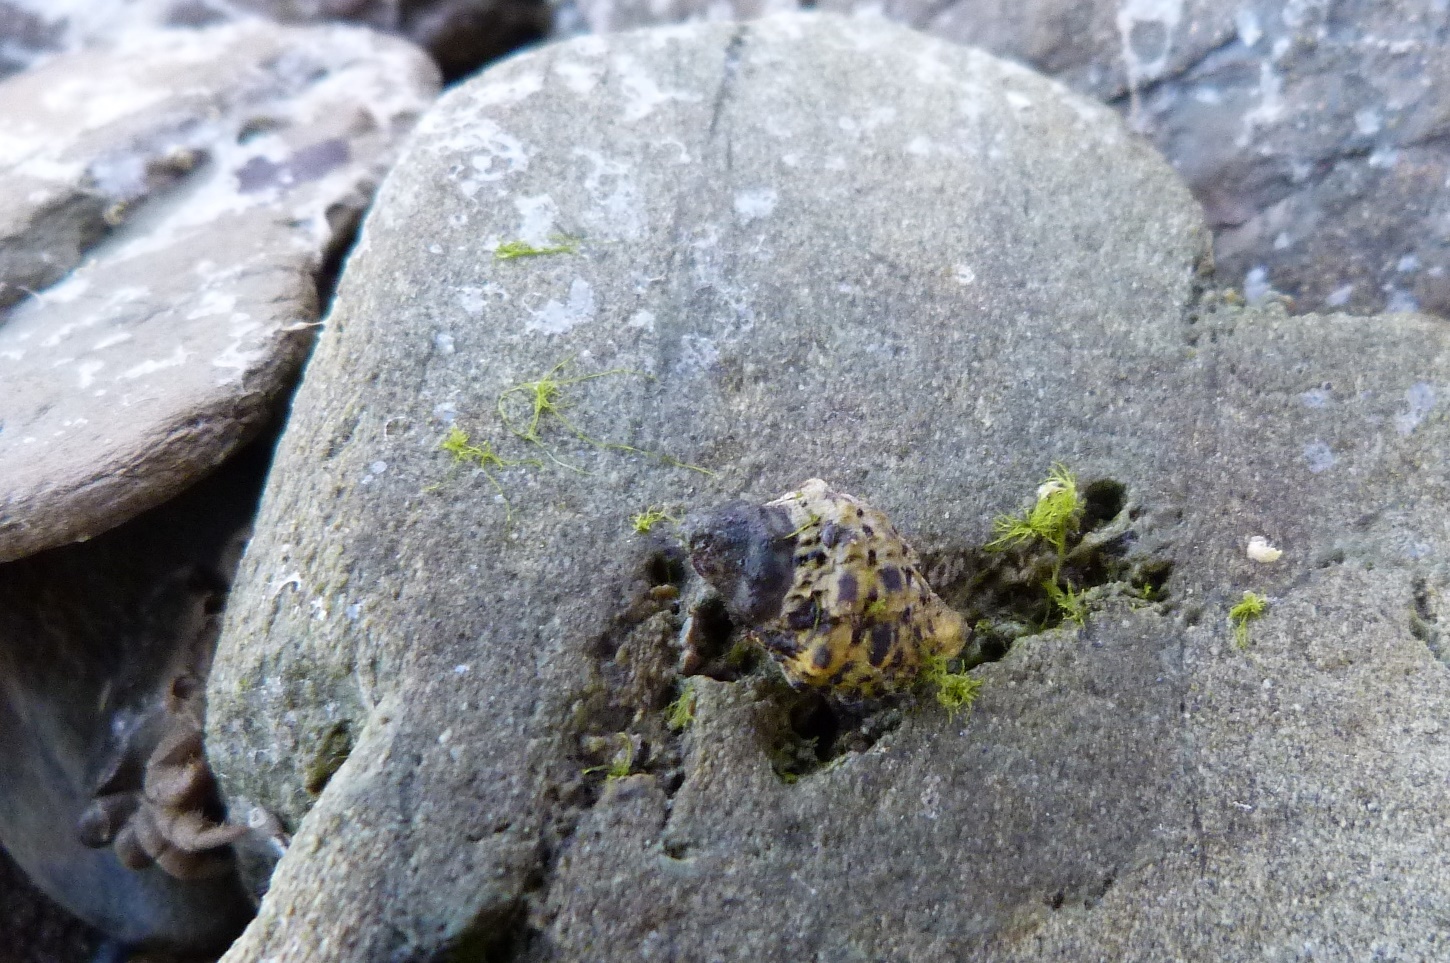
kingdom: Animalia
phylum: Mollusca
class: Gastropoda
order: Neogastropoda
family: Muricidae
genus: Haustrum
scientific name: Haustrum scobina
